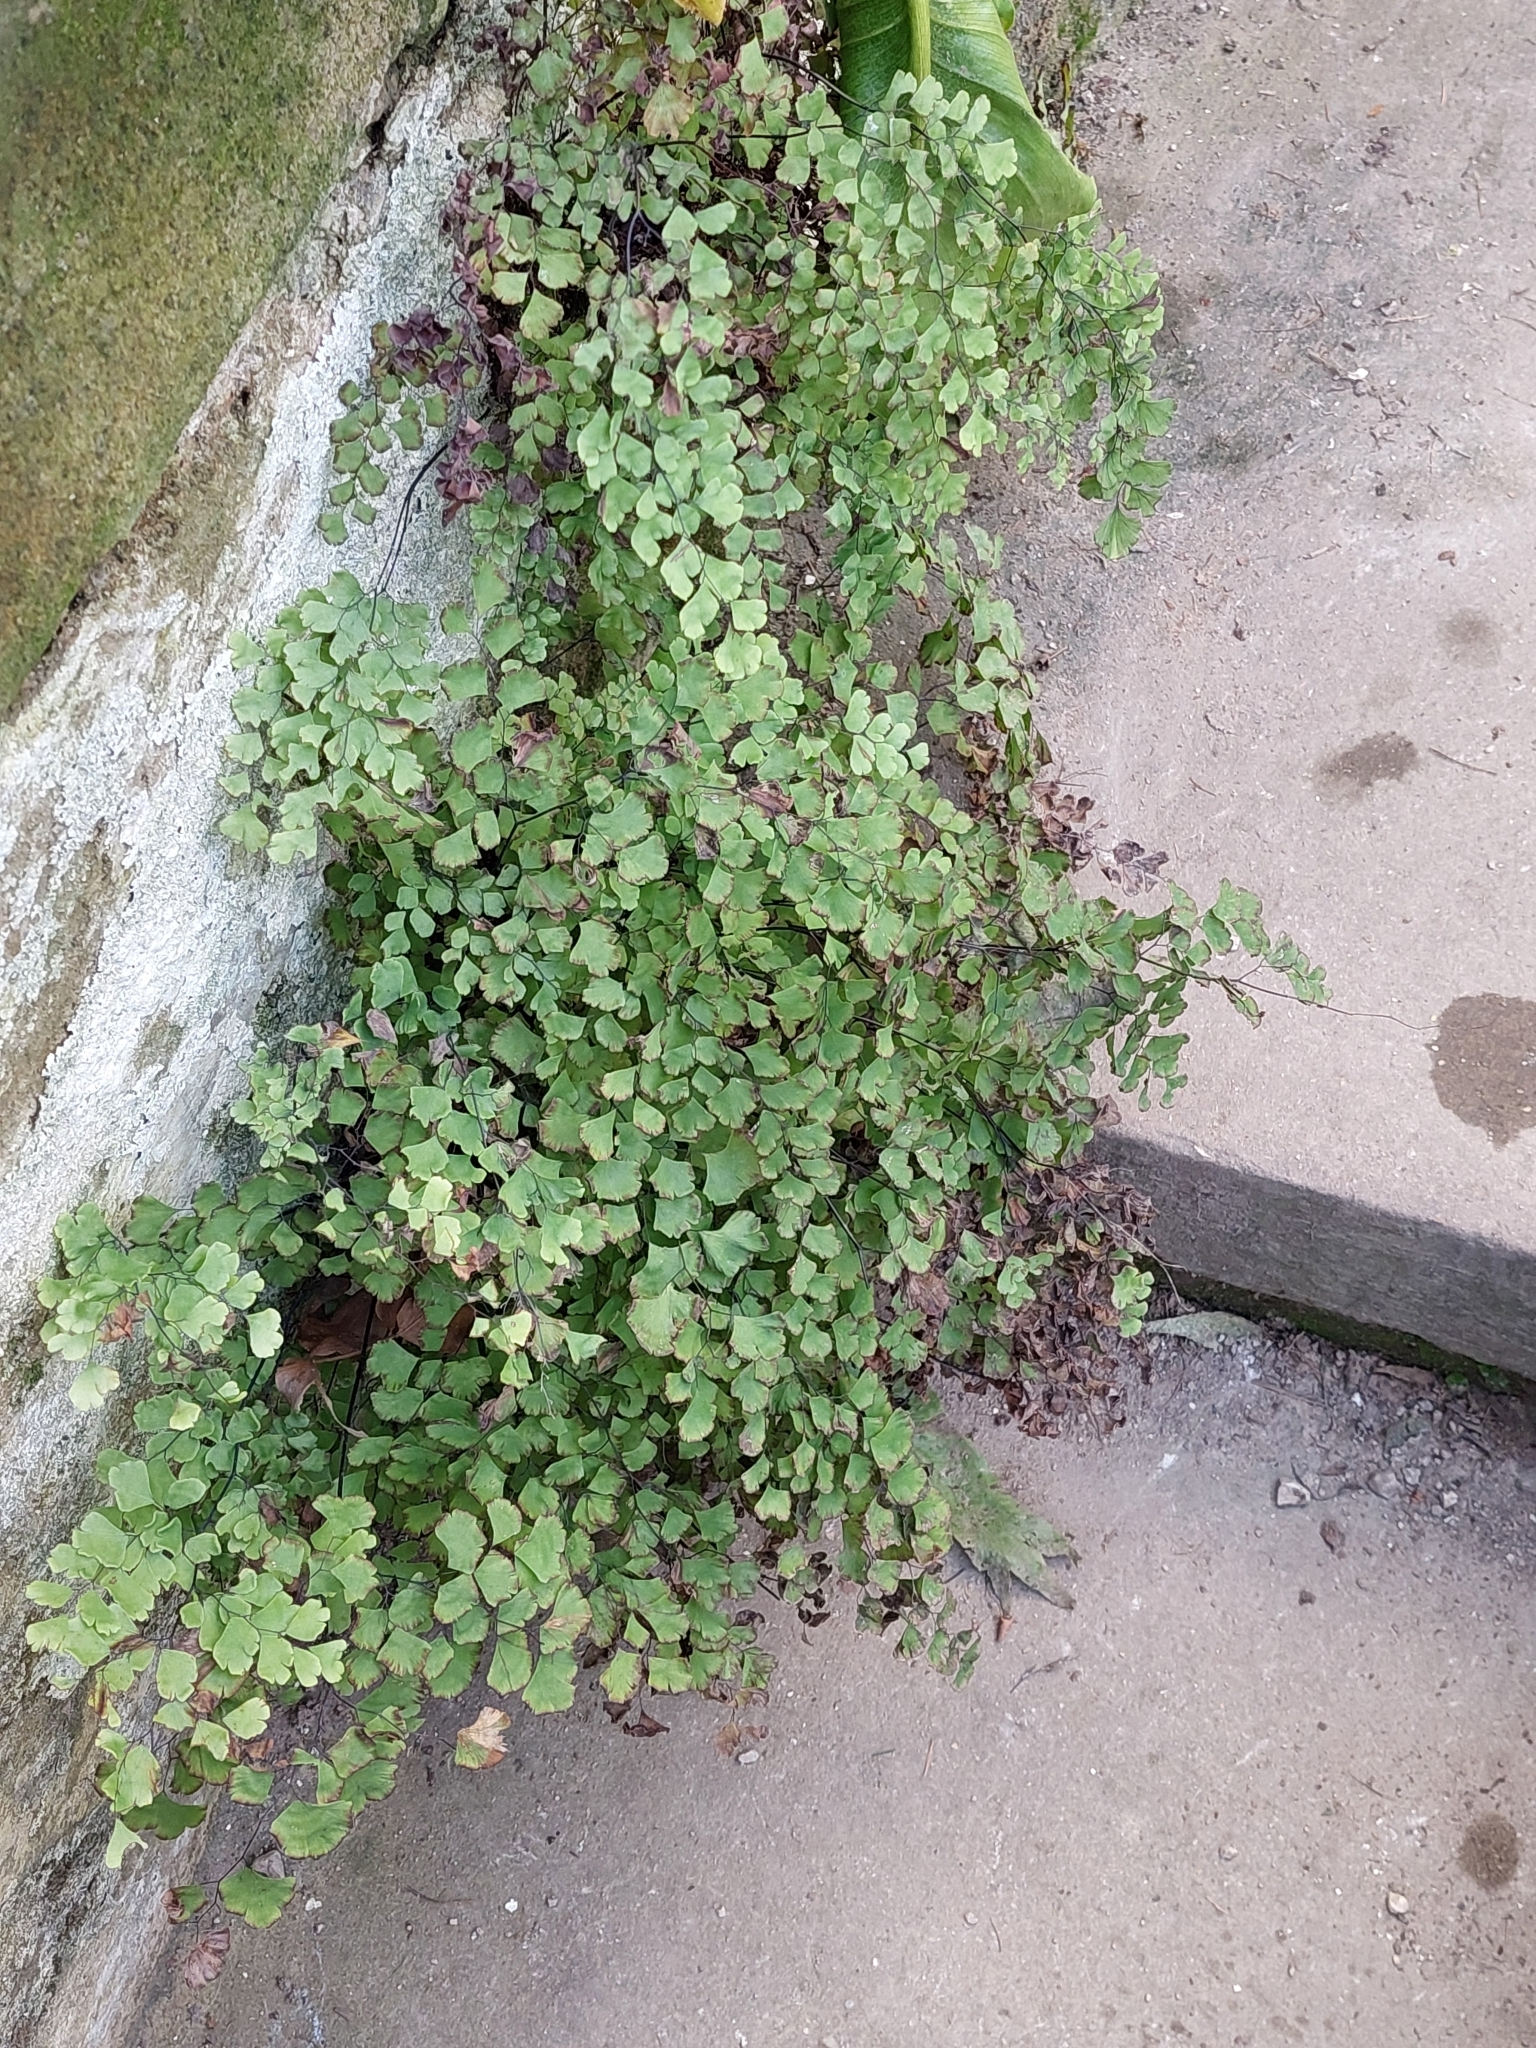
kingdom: Plantae
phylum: Tracheophyta
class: Polypodiopsida
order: Polypodiales
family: Pteridaceae
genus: Adiantum
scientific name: Adiantum capillus-veneris
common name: Maidenhair fern
